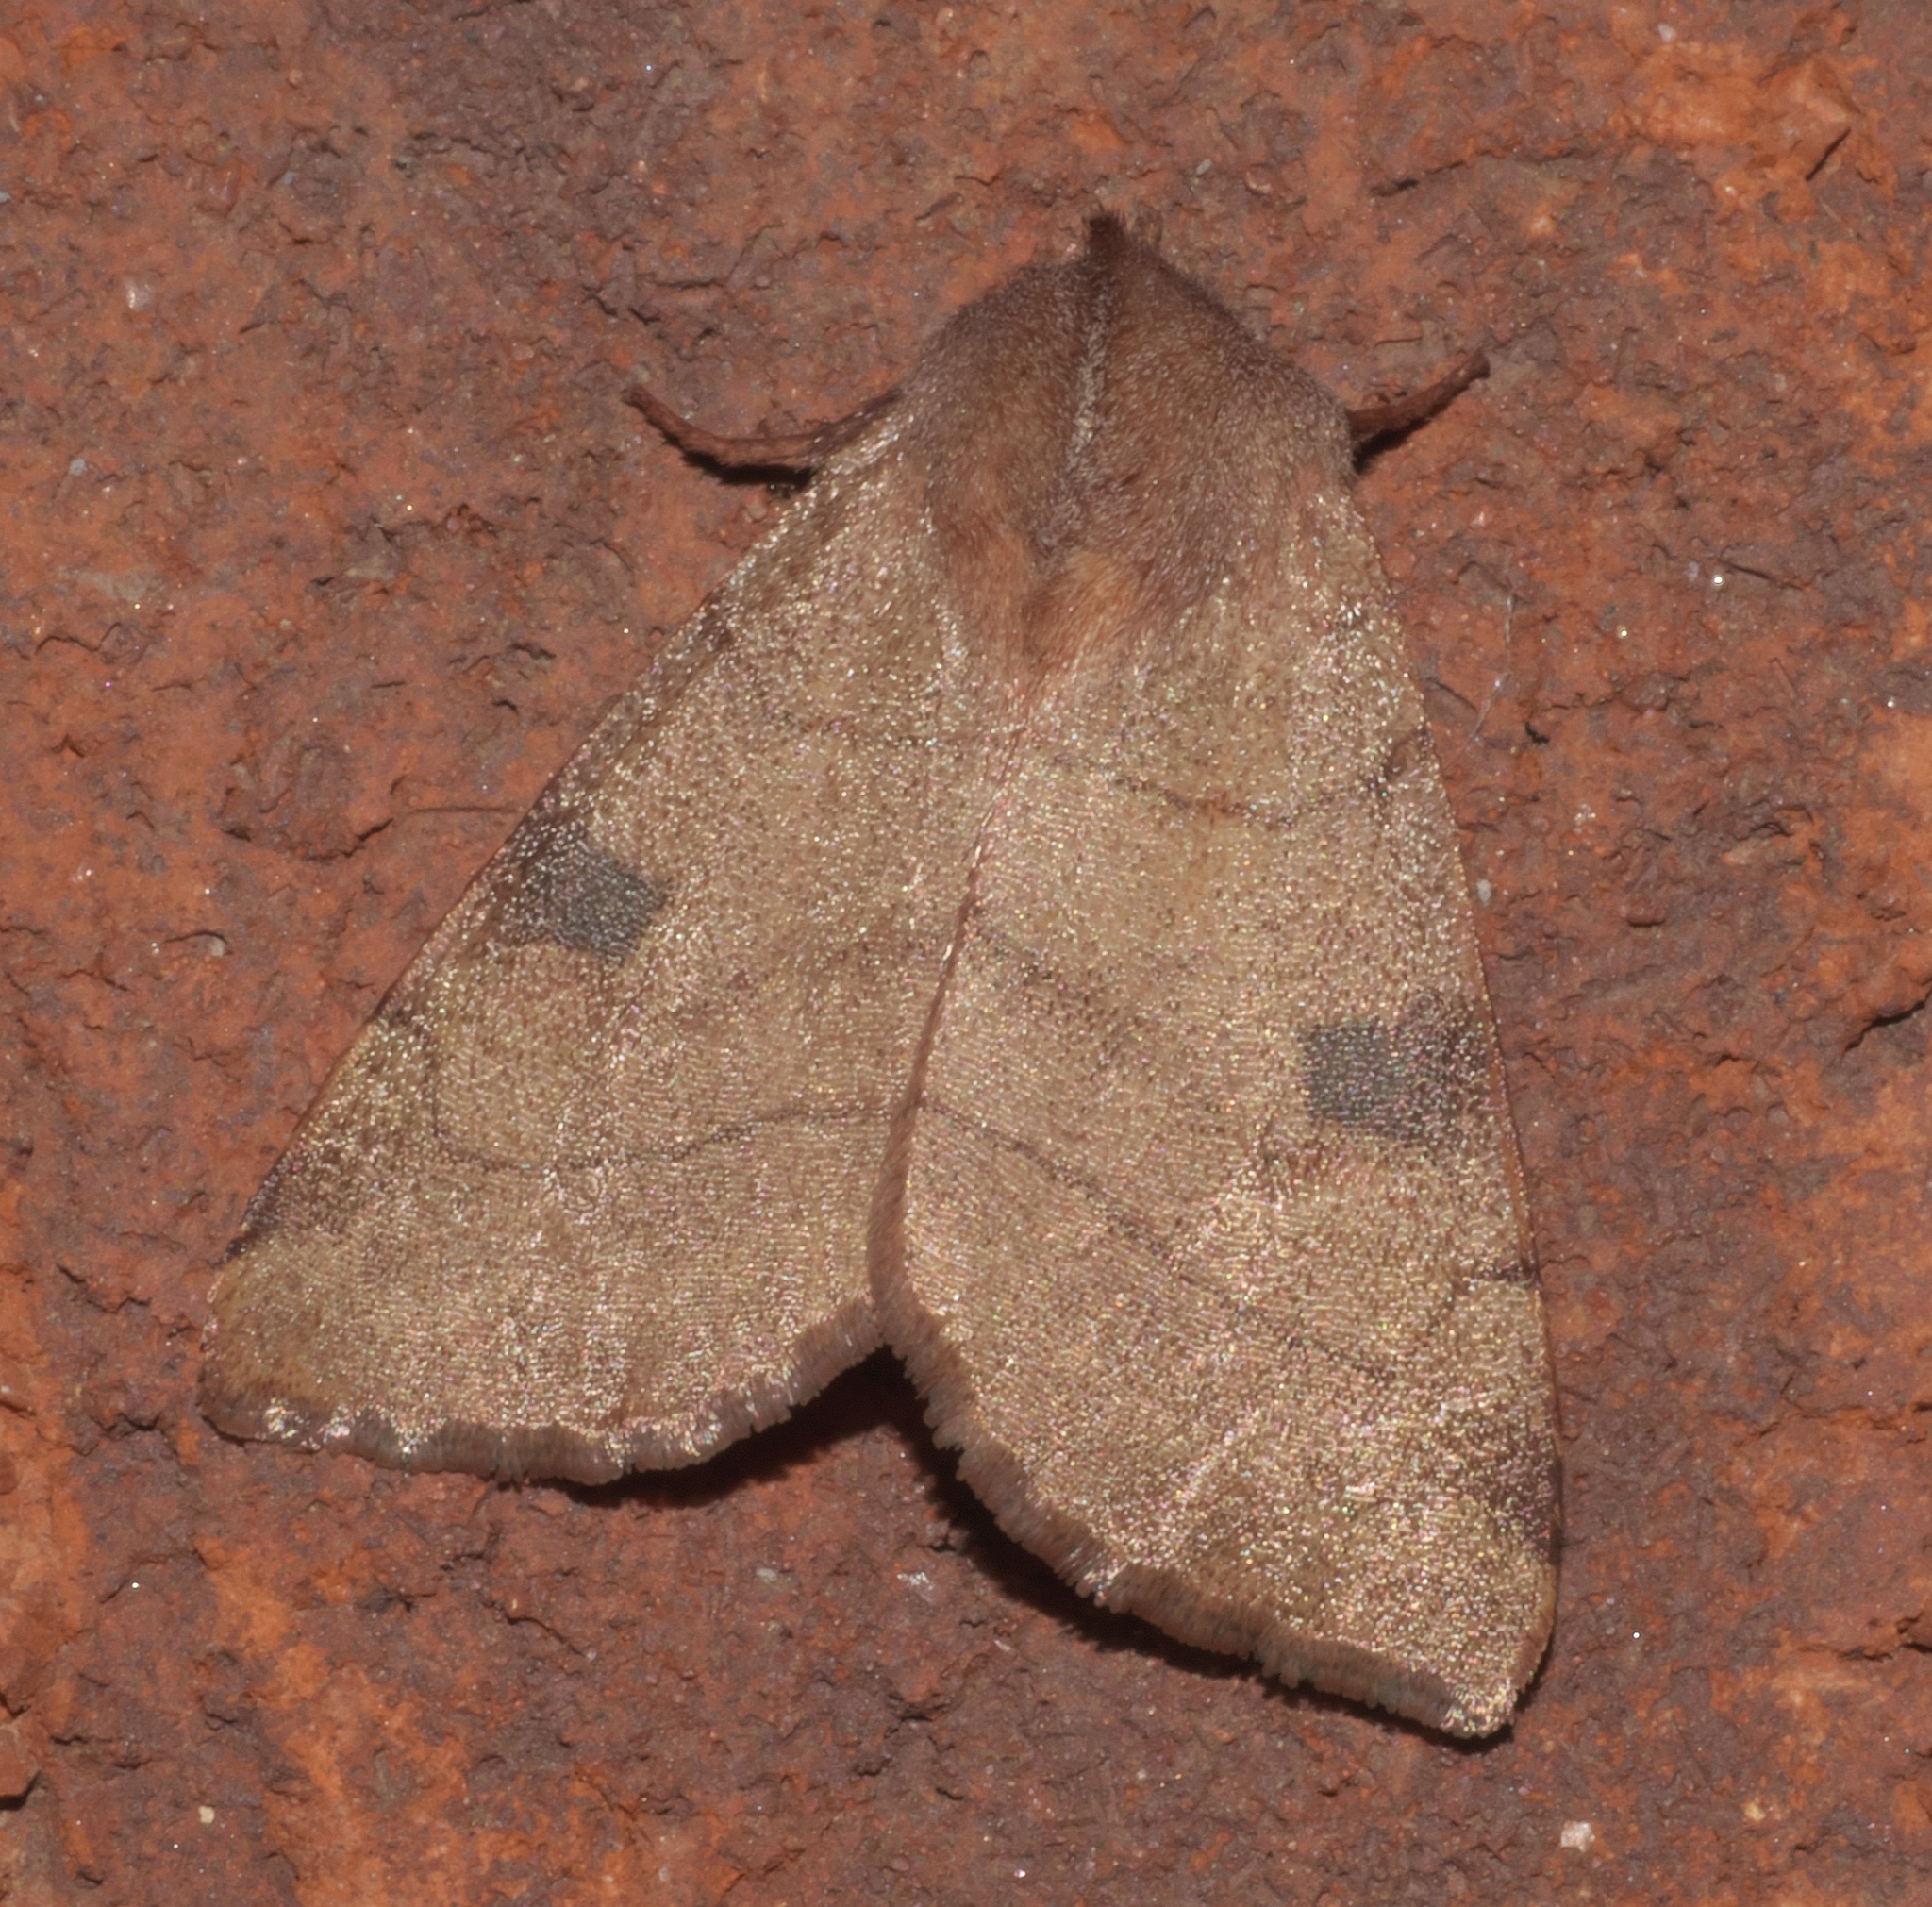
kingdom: Animalia
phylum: Arthropoda
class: Insecta
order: Lepidoptera
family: Noctuidae
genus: Choephora
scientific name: Choephora fungorum
